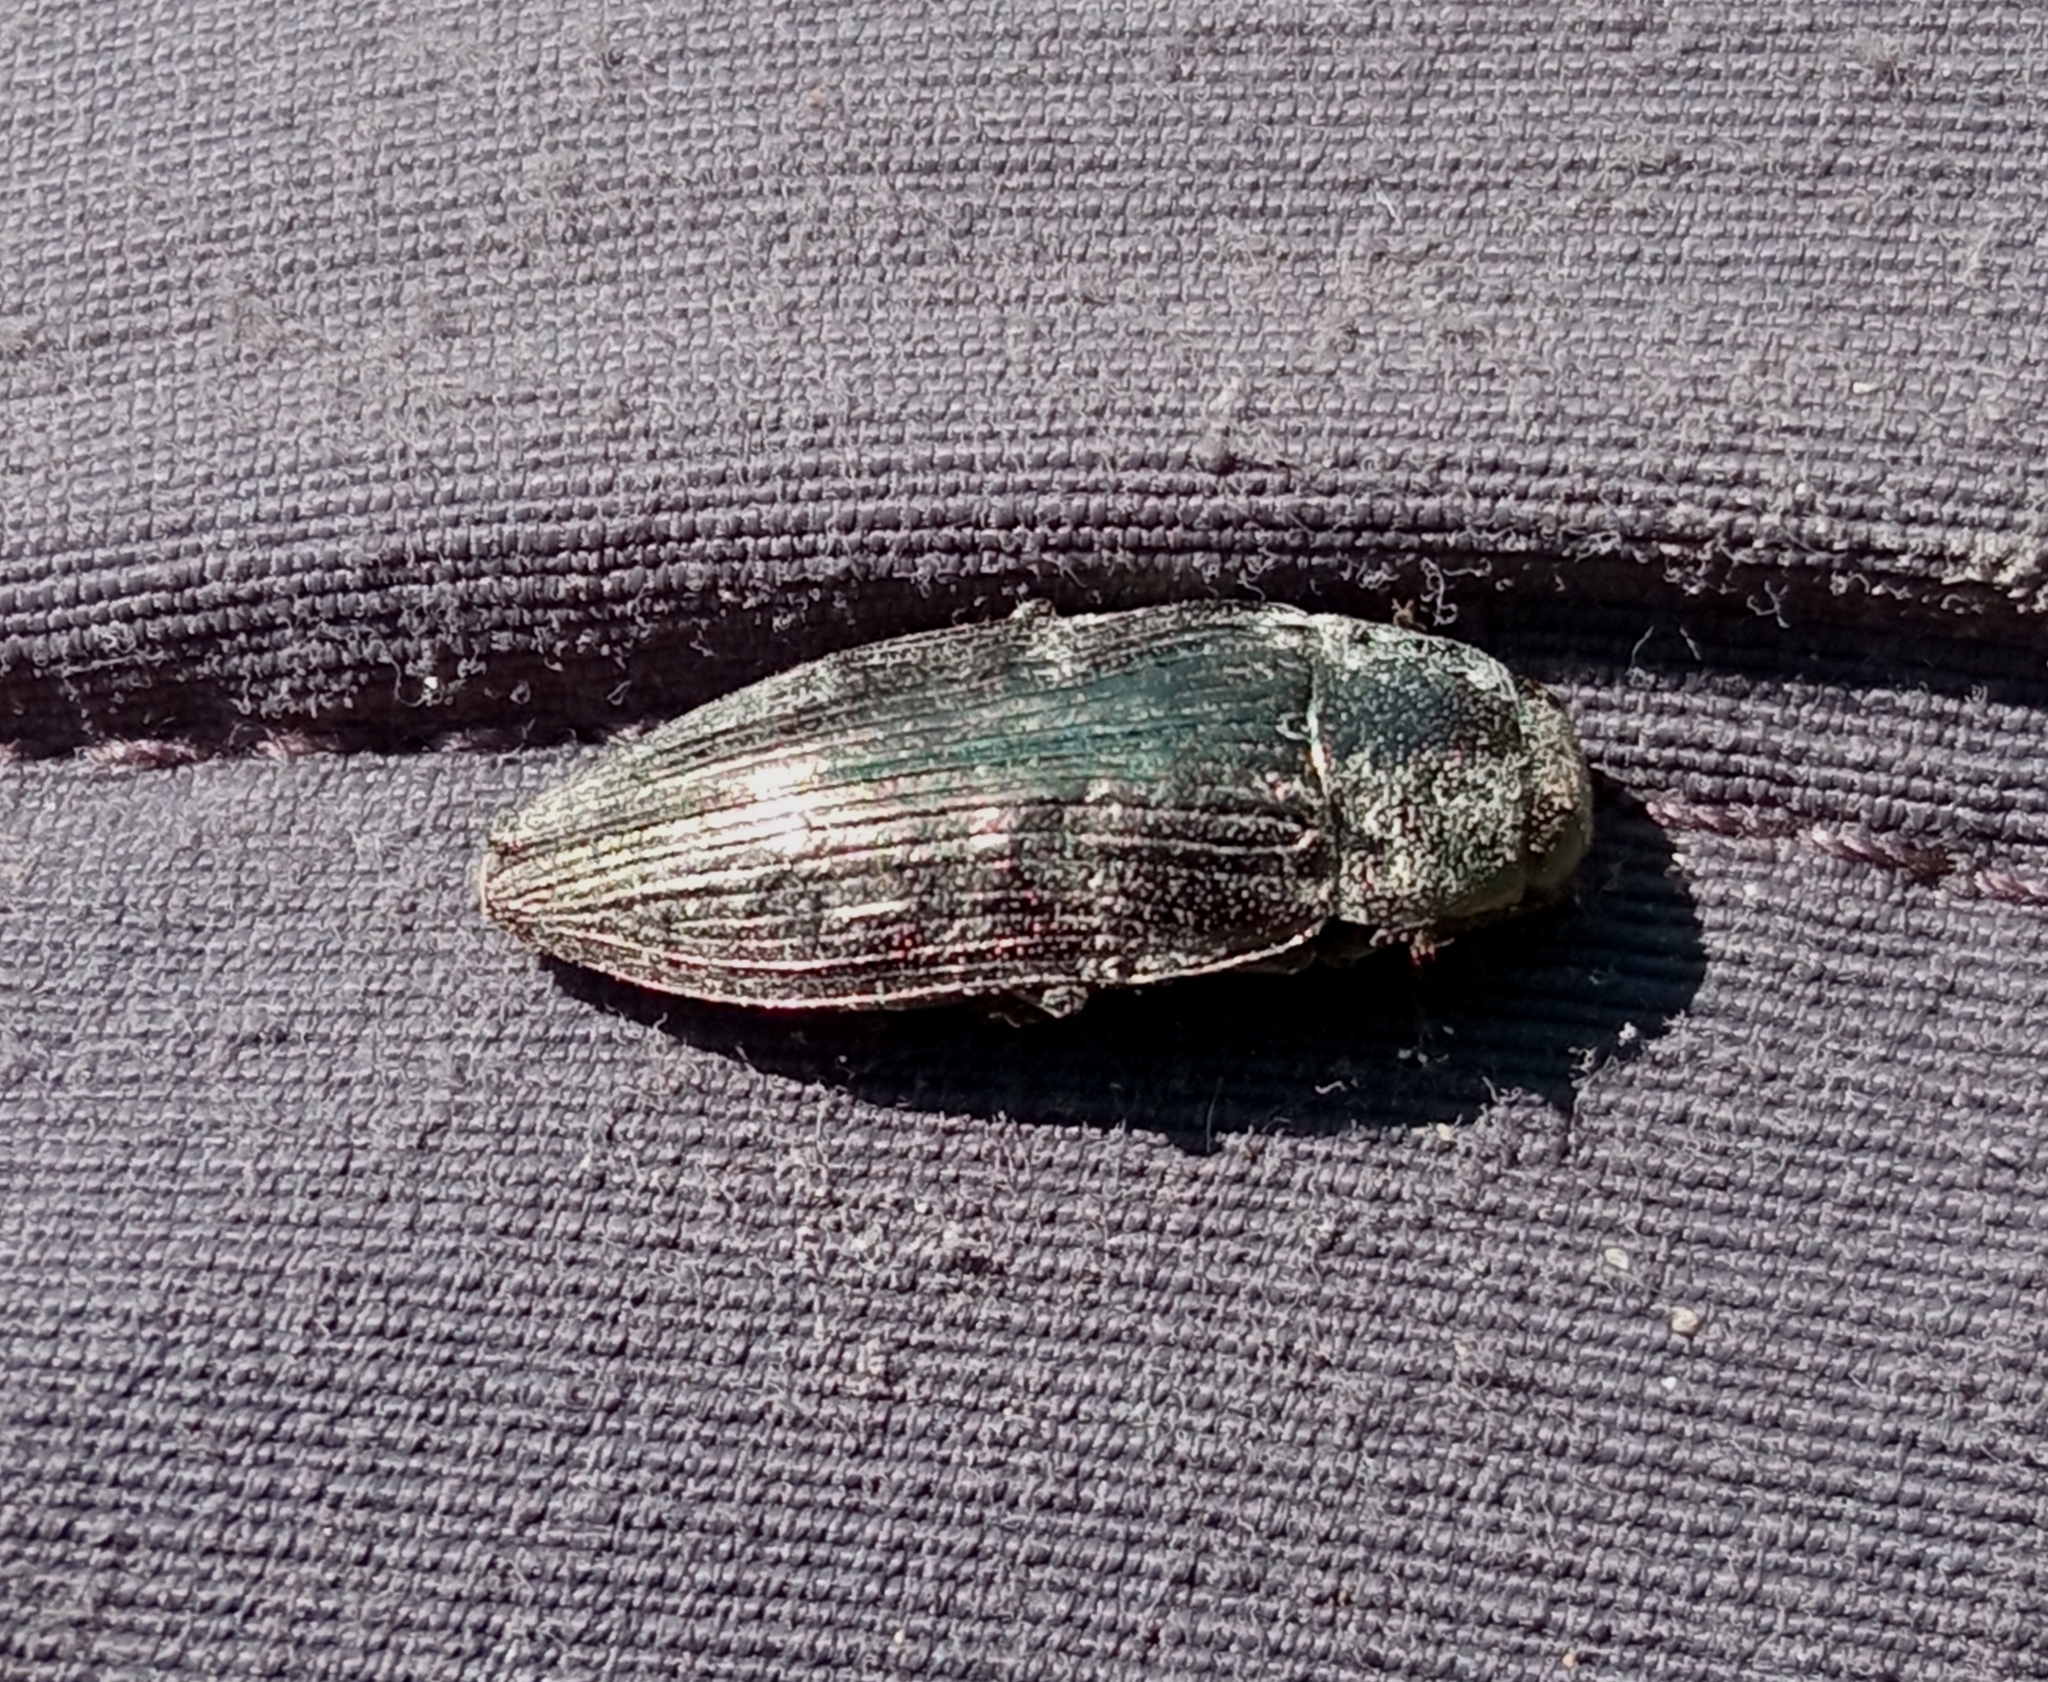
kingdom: Animalia
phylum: Arthropoda
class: Insecta
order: Coleoptera
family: Buprestidae
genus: Buprestis
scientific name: Buprestis haemorrhoidalis
